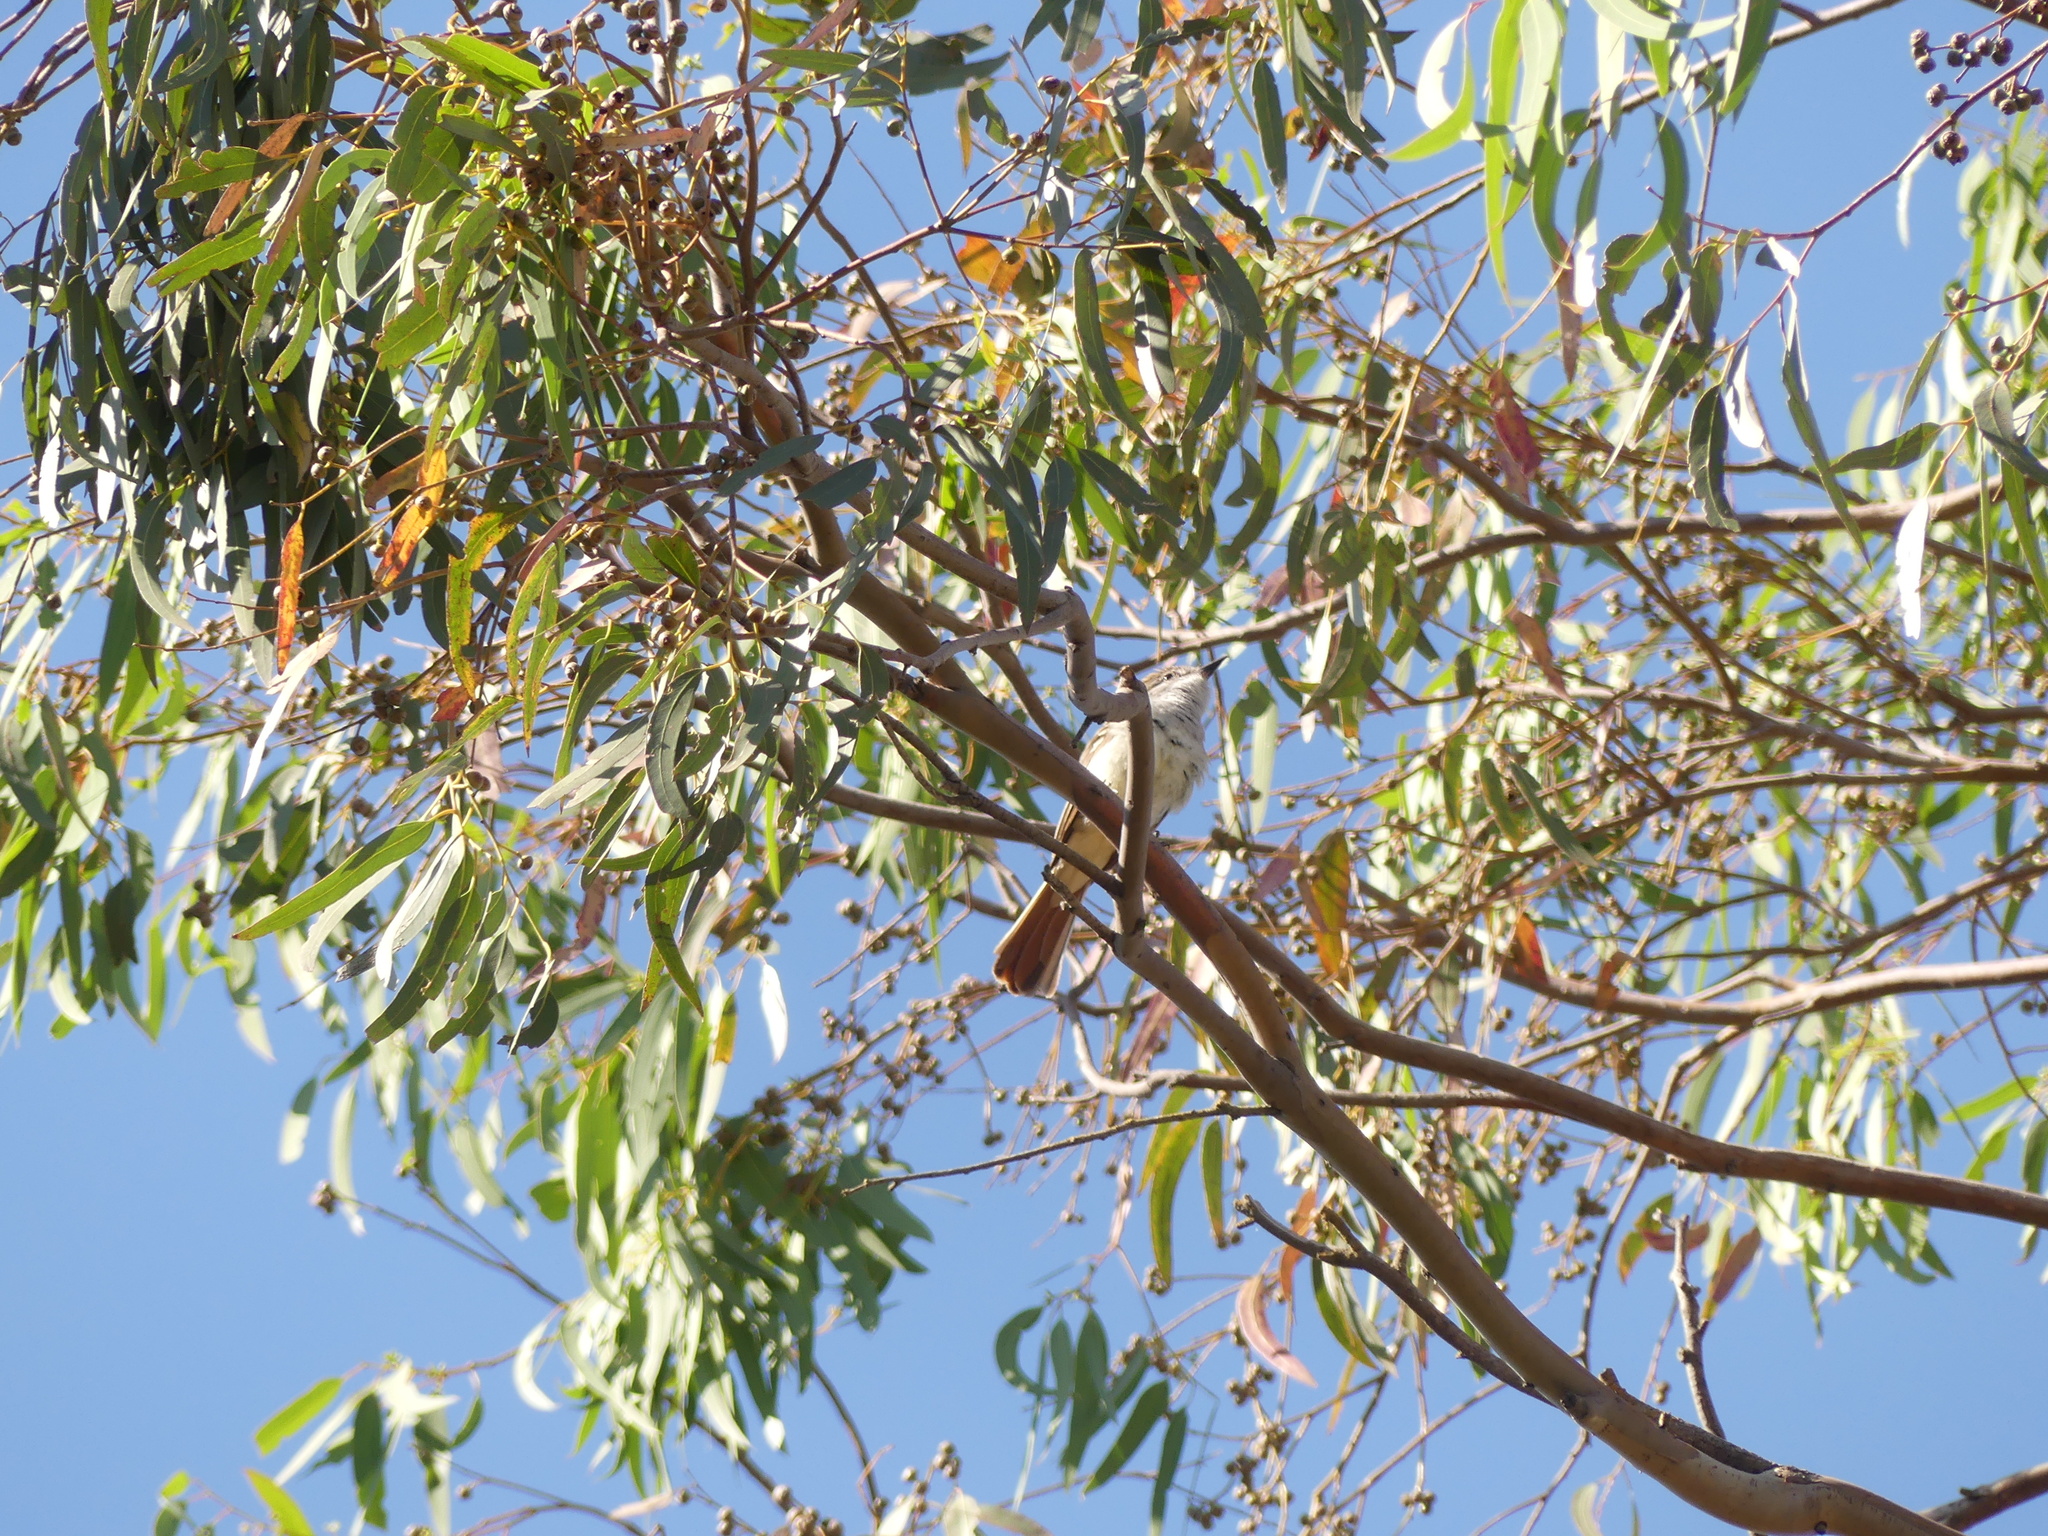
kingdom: Animalia
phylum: Chordata
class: Aves
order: Passeriformes
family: Tyrannidae
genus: Myiarchus
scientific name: Myiarchus cinerascens
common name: Ash-throated flycatcher
